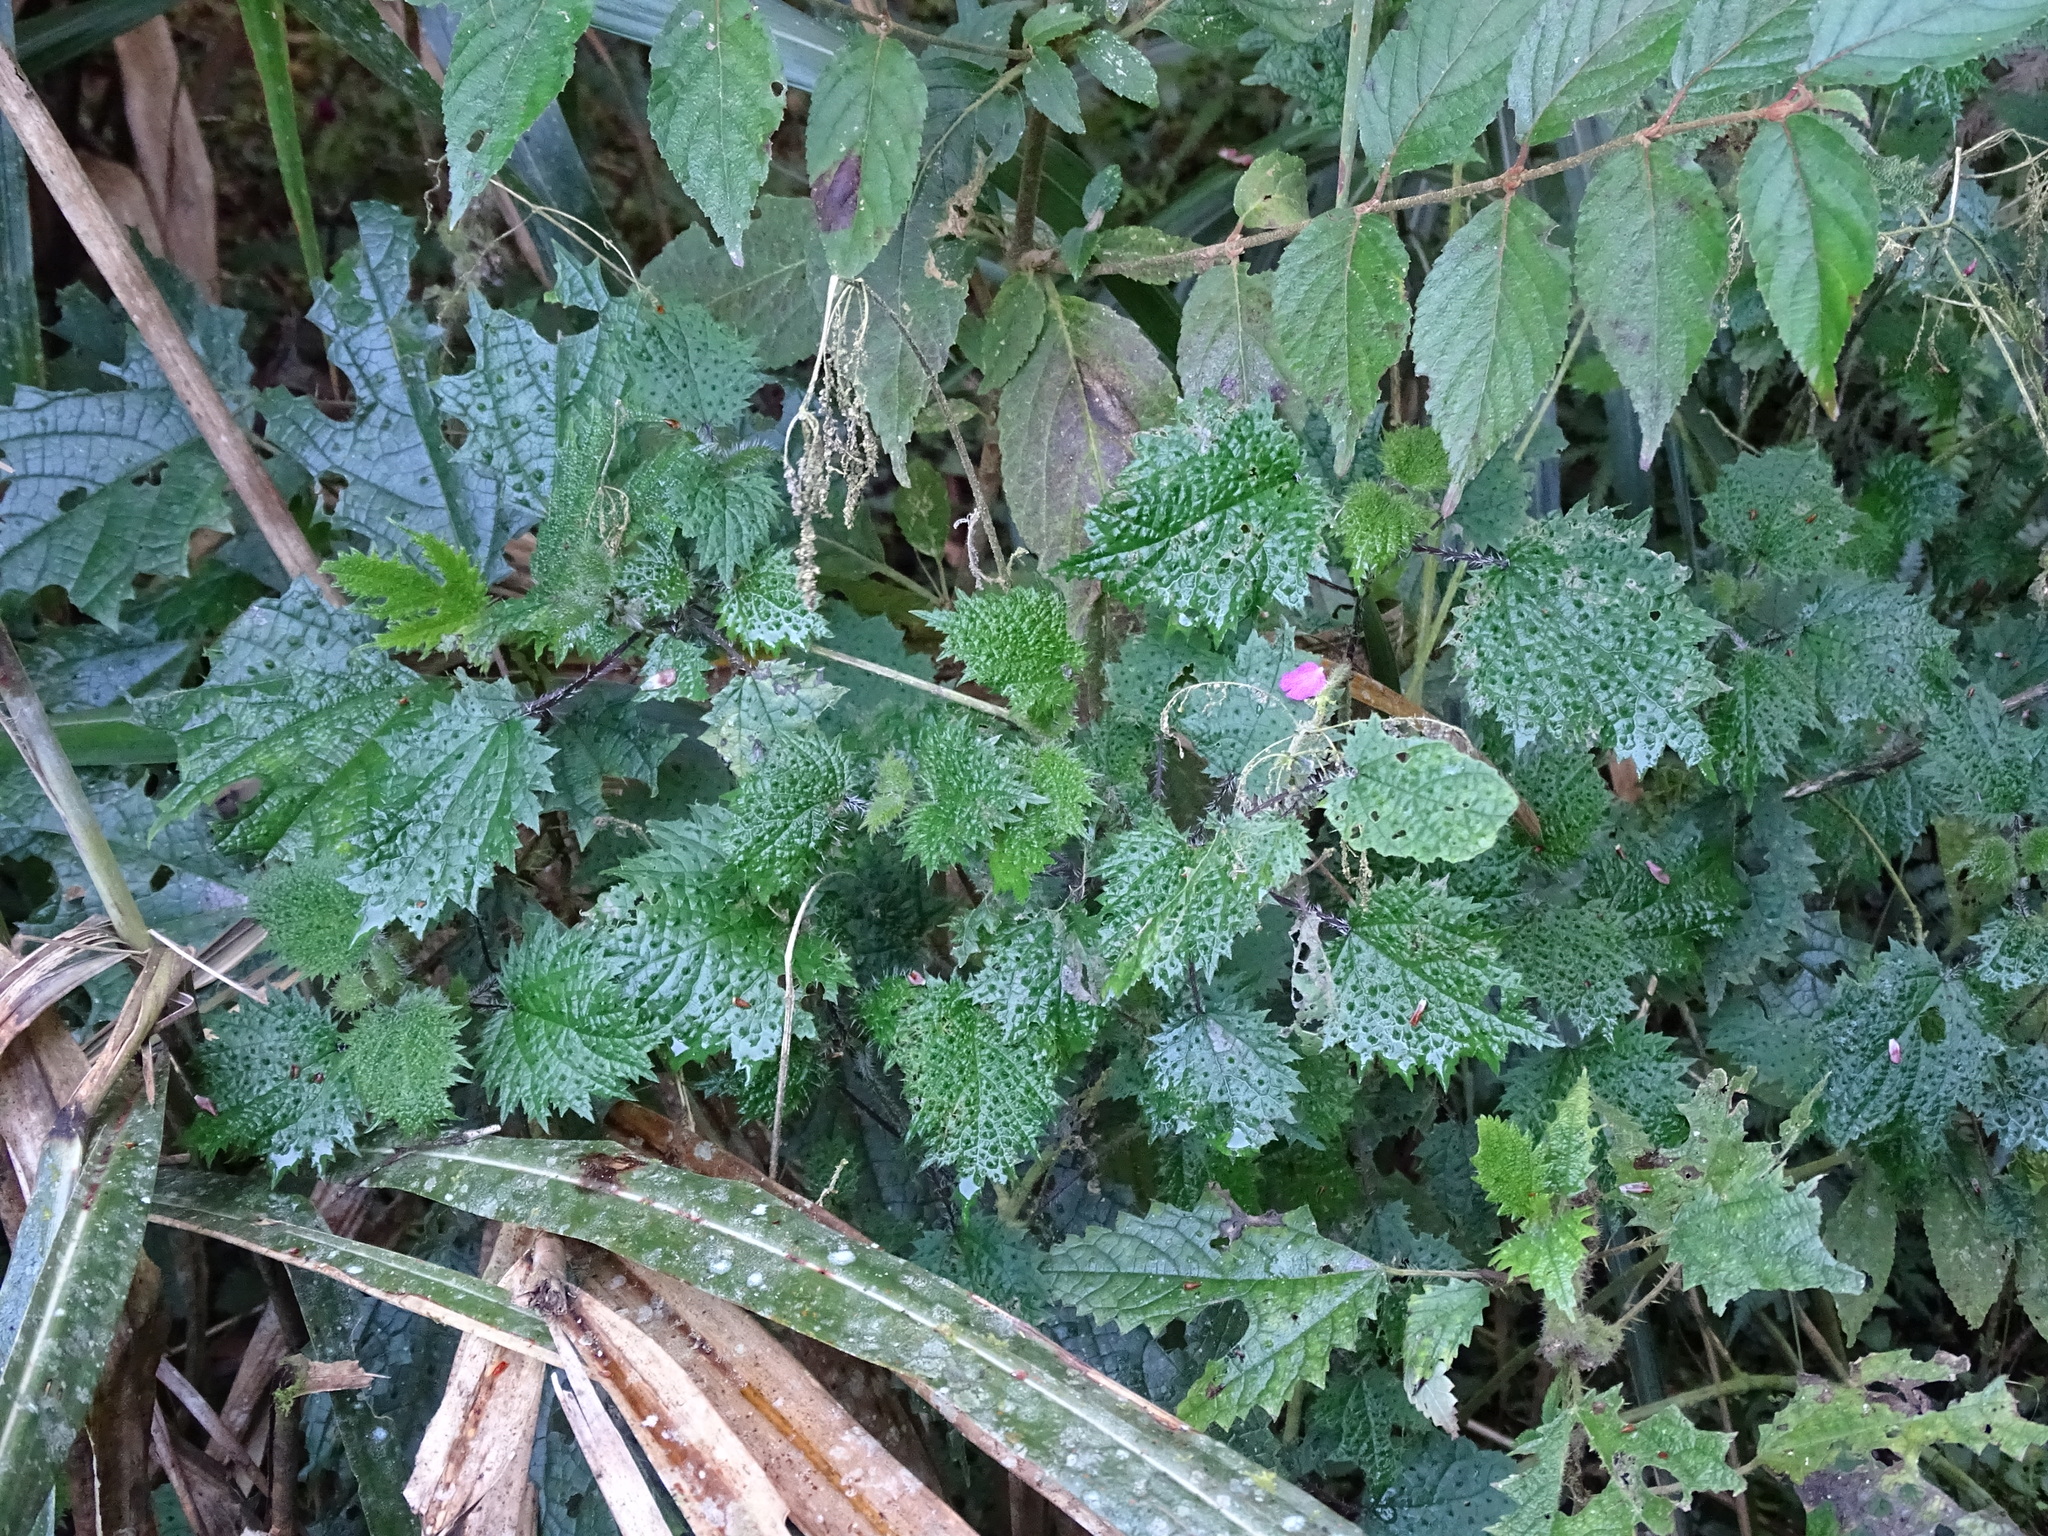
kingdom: Plantae
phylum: Tracheophyta
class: Magnoliopsida
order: Rosales
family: Urticaceae
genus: Urtica
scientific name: Urtica thunbergiana
